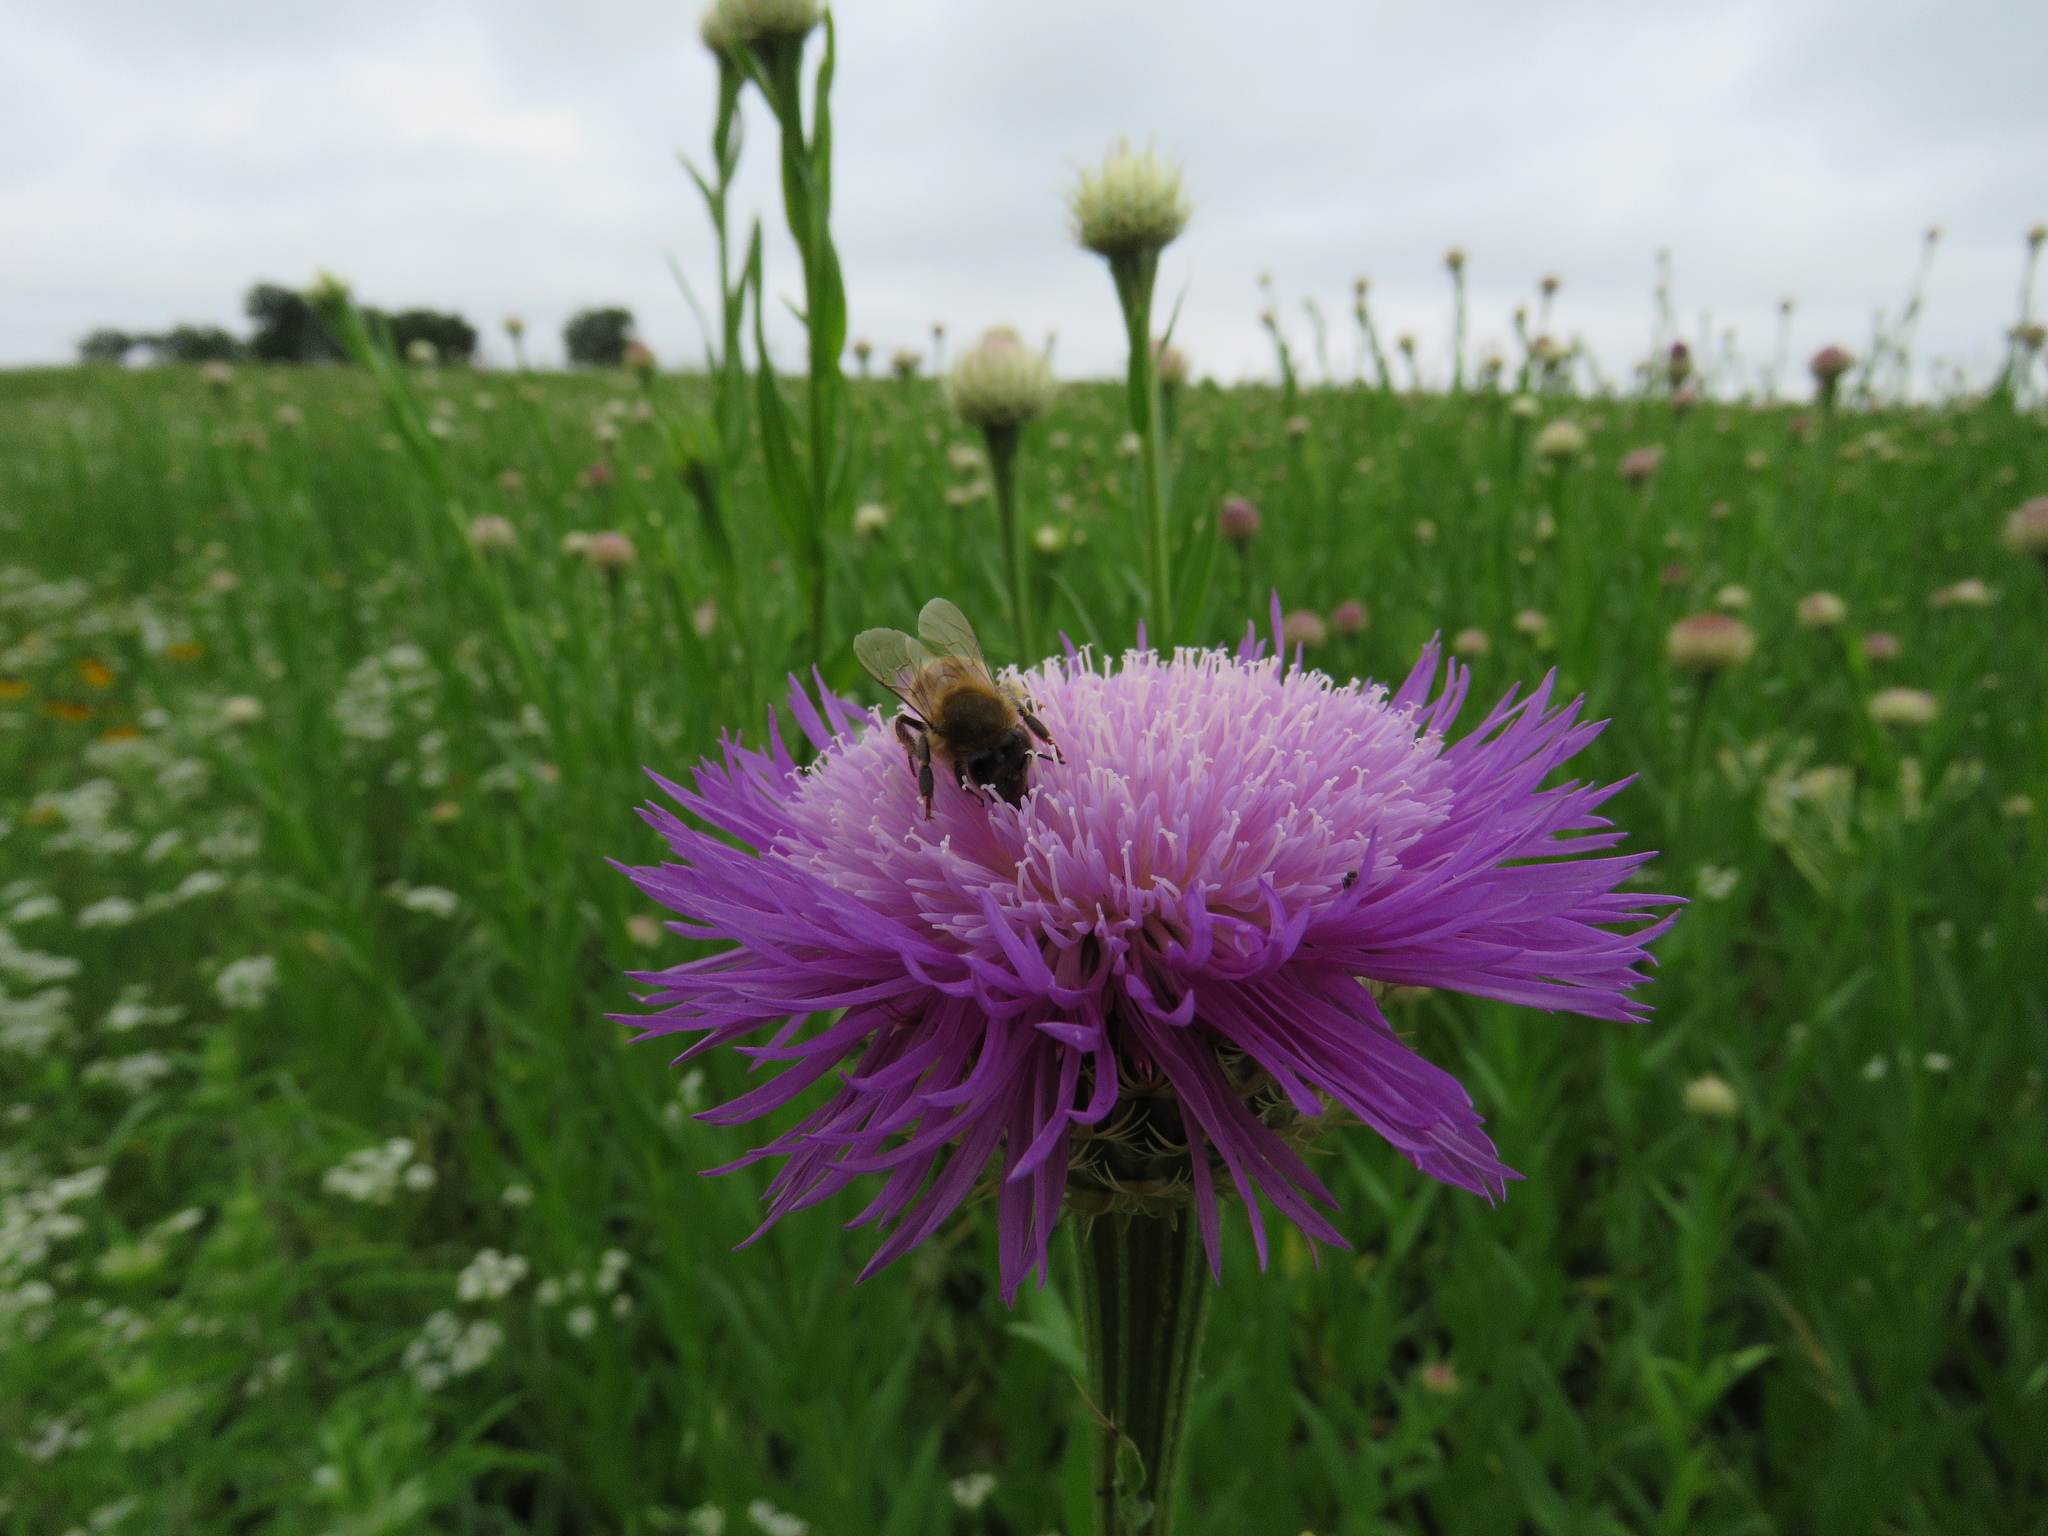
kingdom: Animalia
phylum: Arthropoda
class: Insecta
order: Hymenoptera
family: Apidae
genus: Apis
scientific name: Apis mellifera
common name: Honey bee
